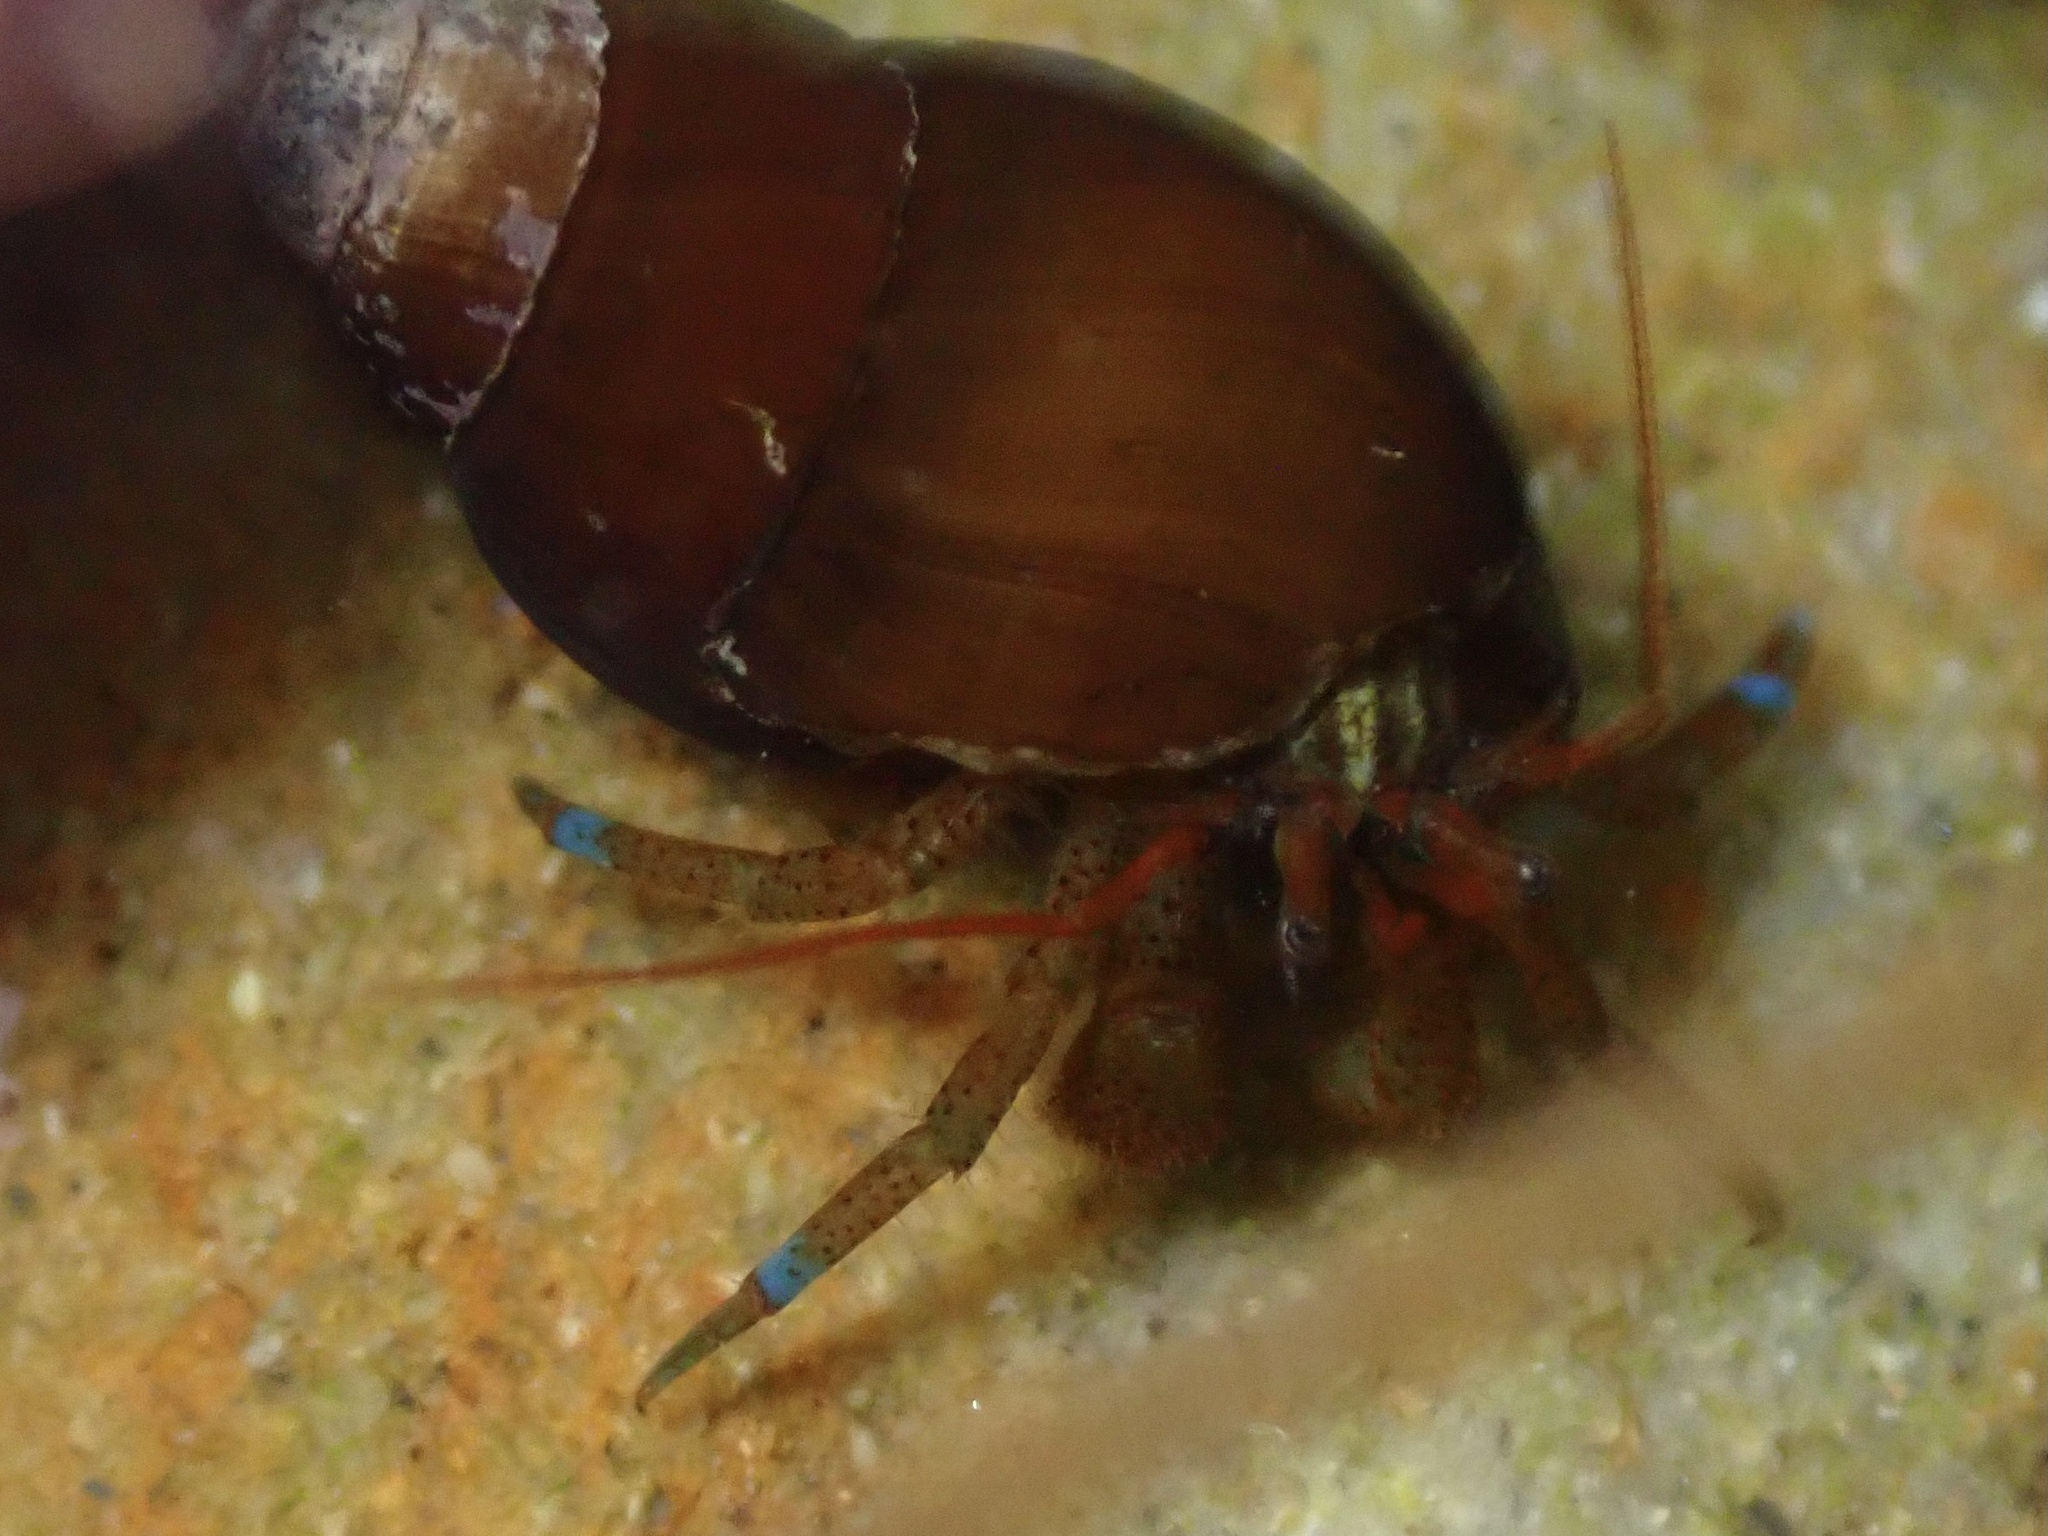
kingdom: Animalia
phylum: Arthropoda
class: Malacostraca
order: Decapoda
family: Paguridae
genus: Pagurus
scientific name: Pagurus samuelis
